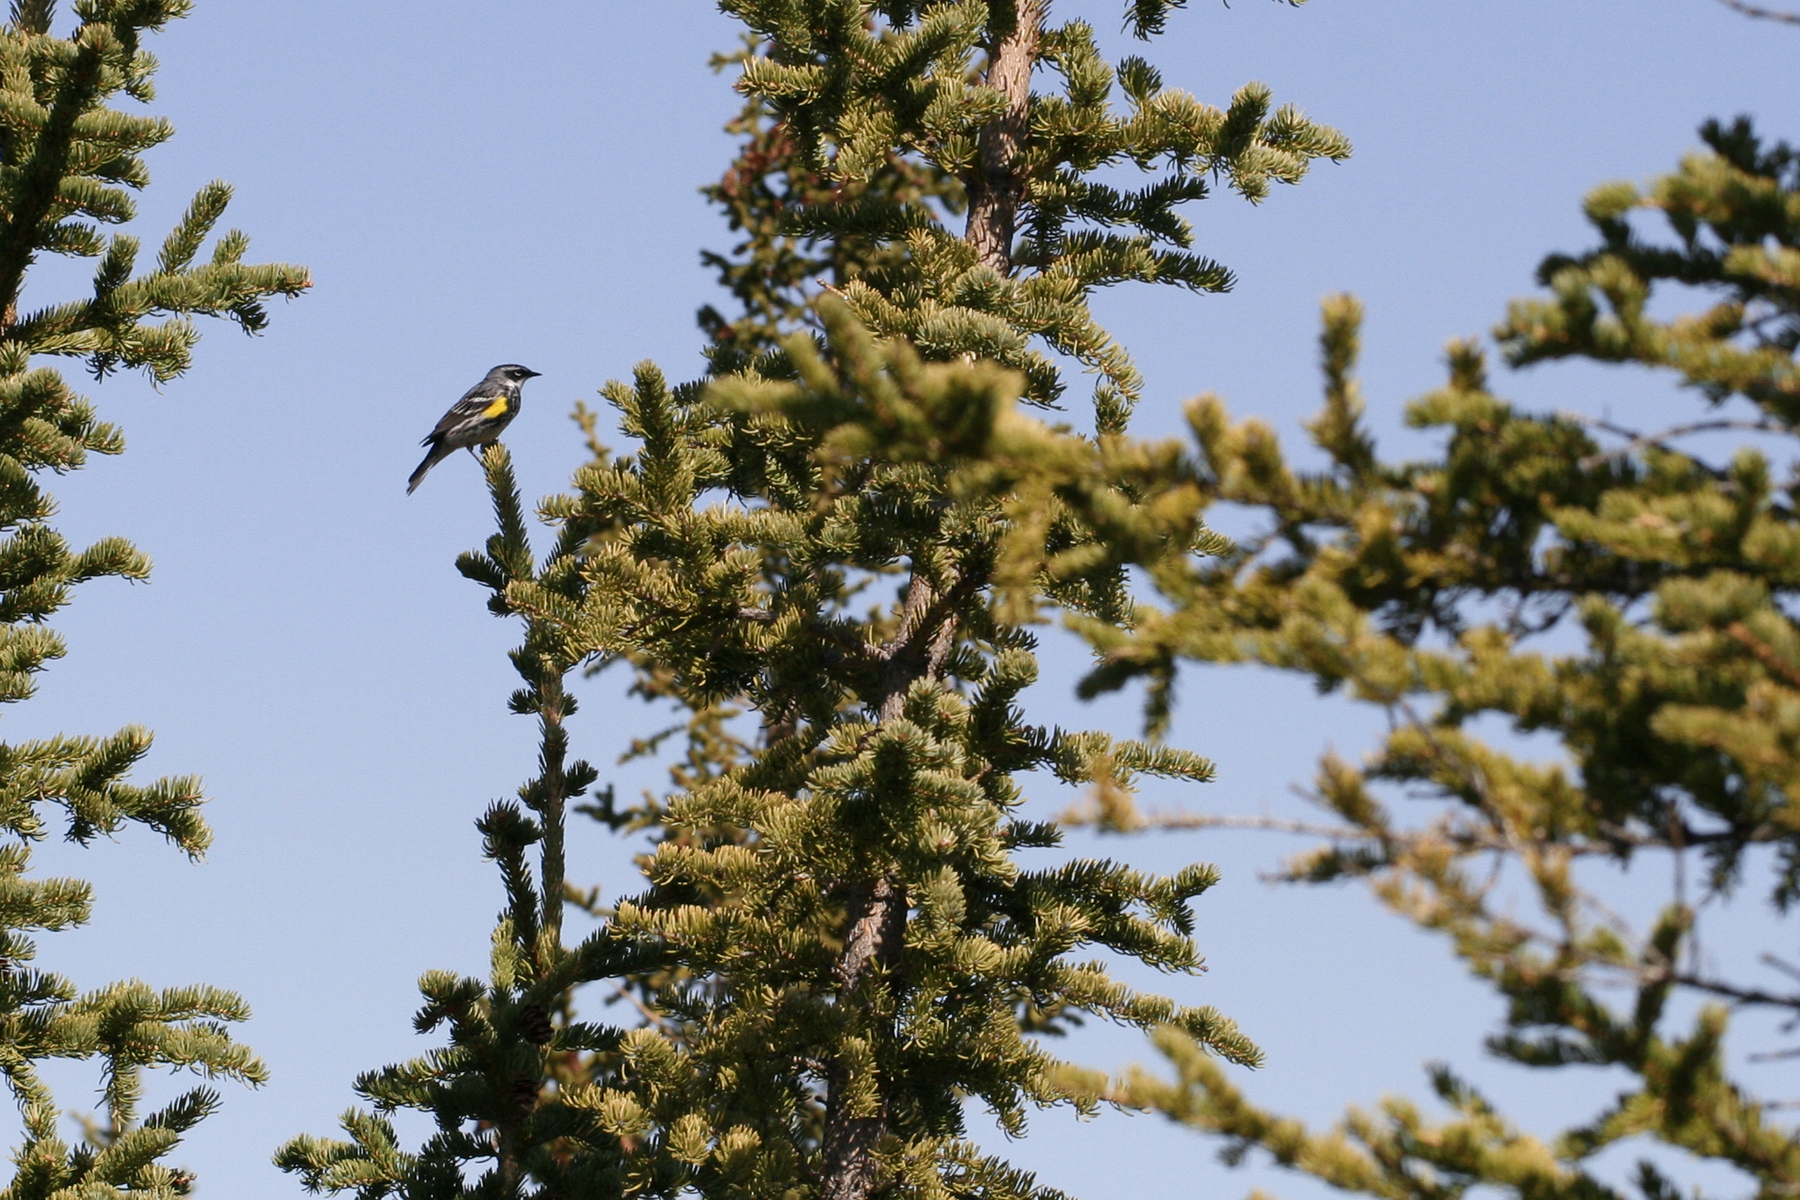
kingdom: Animalia
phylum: Chordata
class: Aves
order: Passeriformes
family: Parulidae
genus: Setophaga
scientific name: Setophaga coronata
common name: Myrtle warbler
